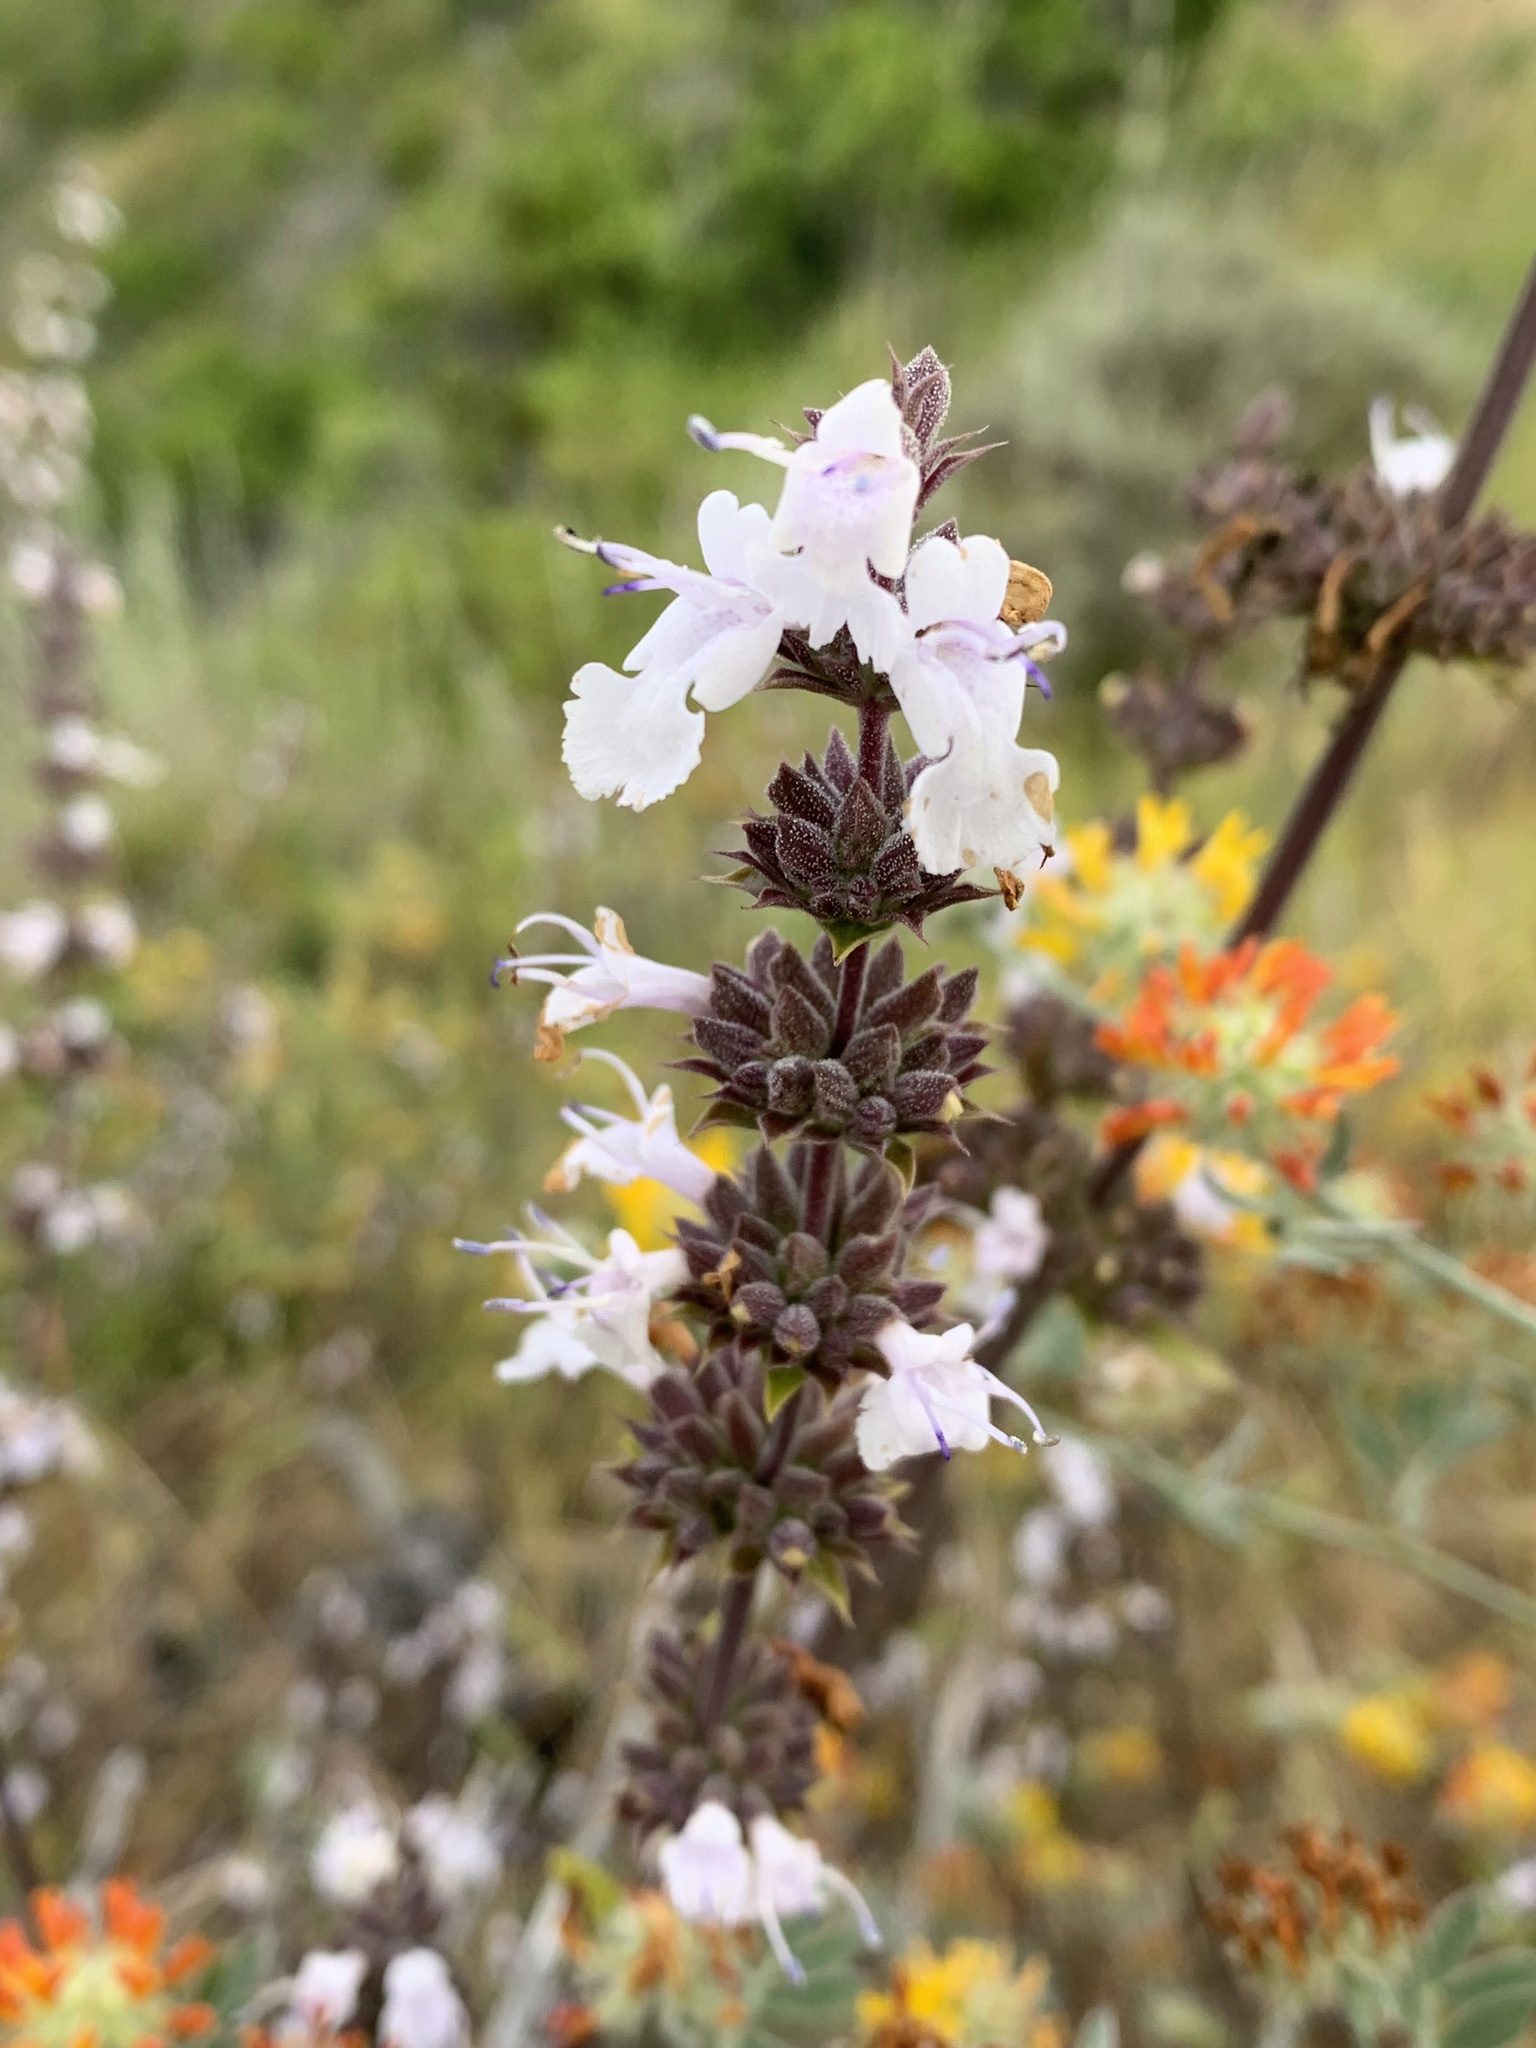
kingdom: Plantae
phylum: Tracheophyta
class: Magnoliopsida
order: Lamiales
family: Lamiaceae
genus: Salvia
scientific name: Salvia mellifera
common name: Black sage
